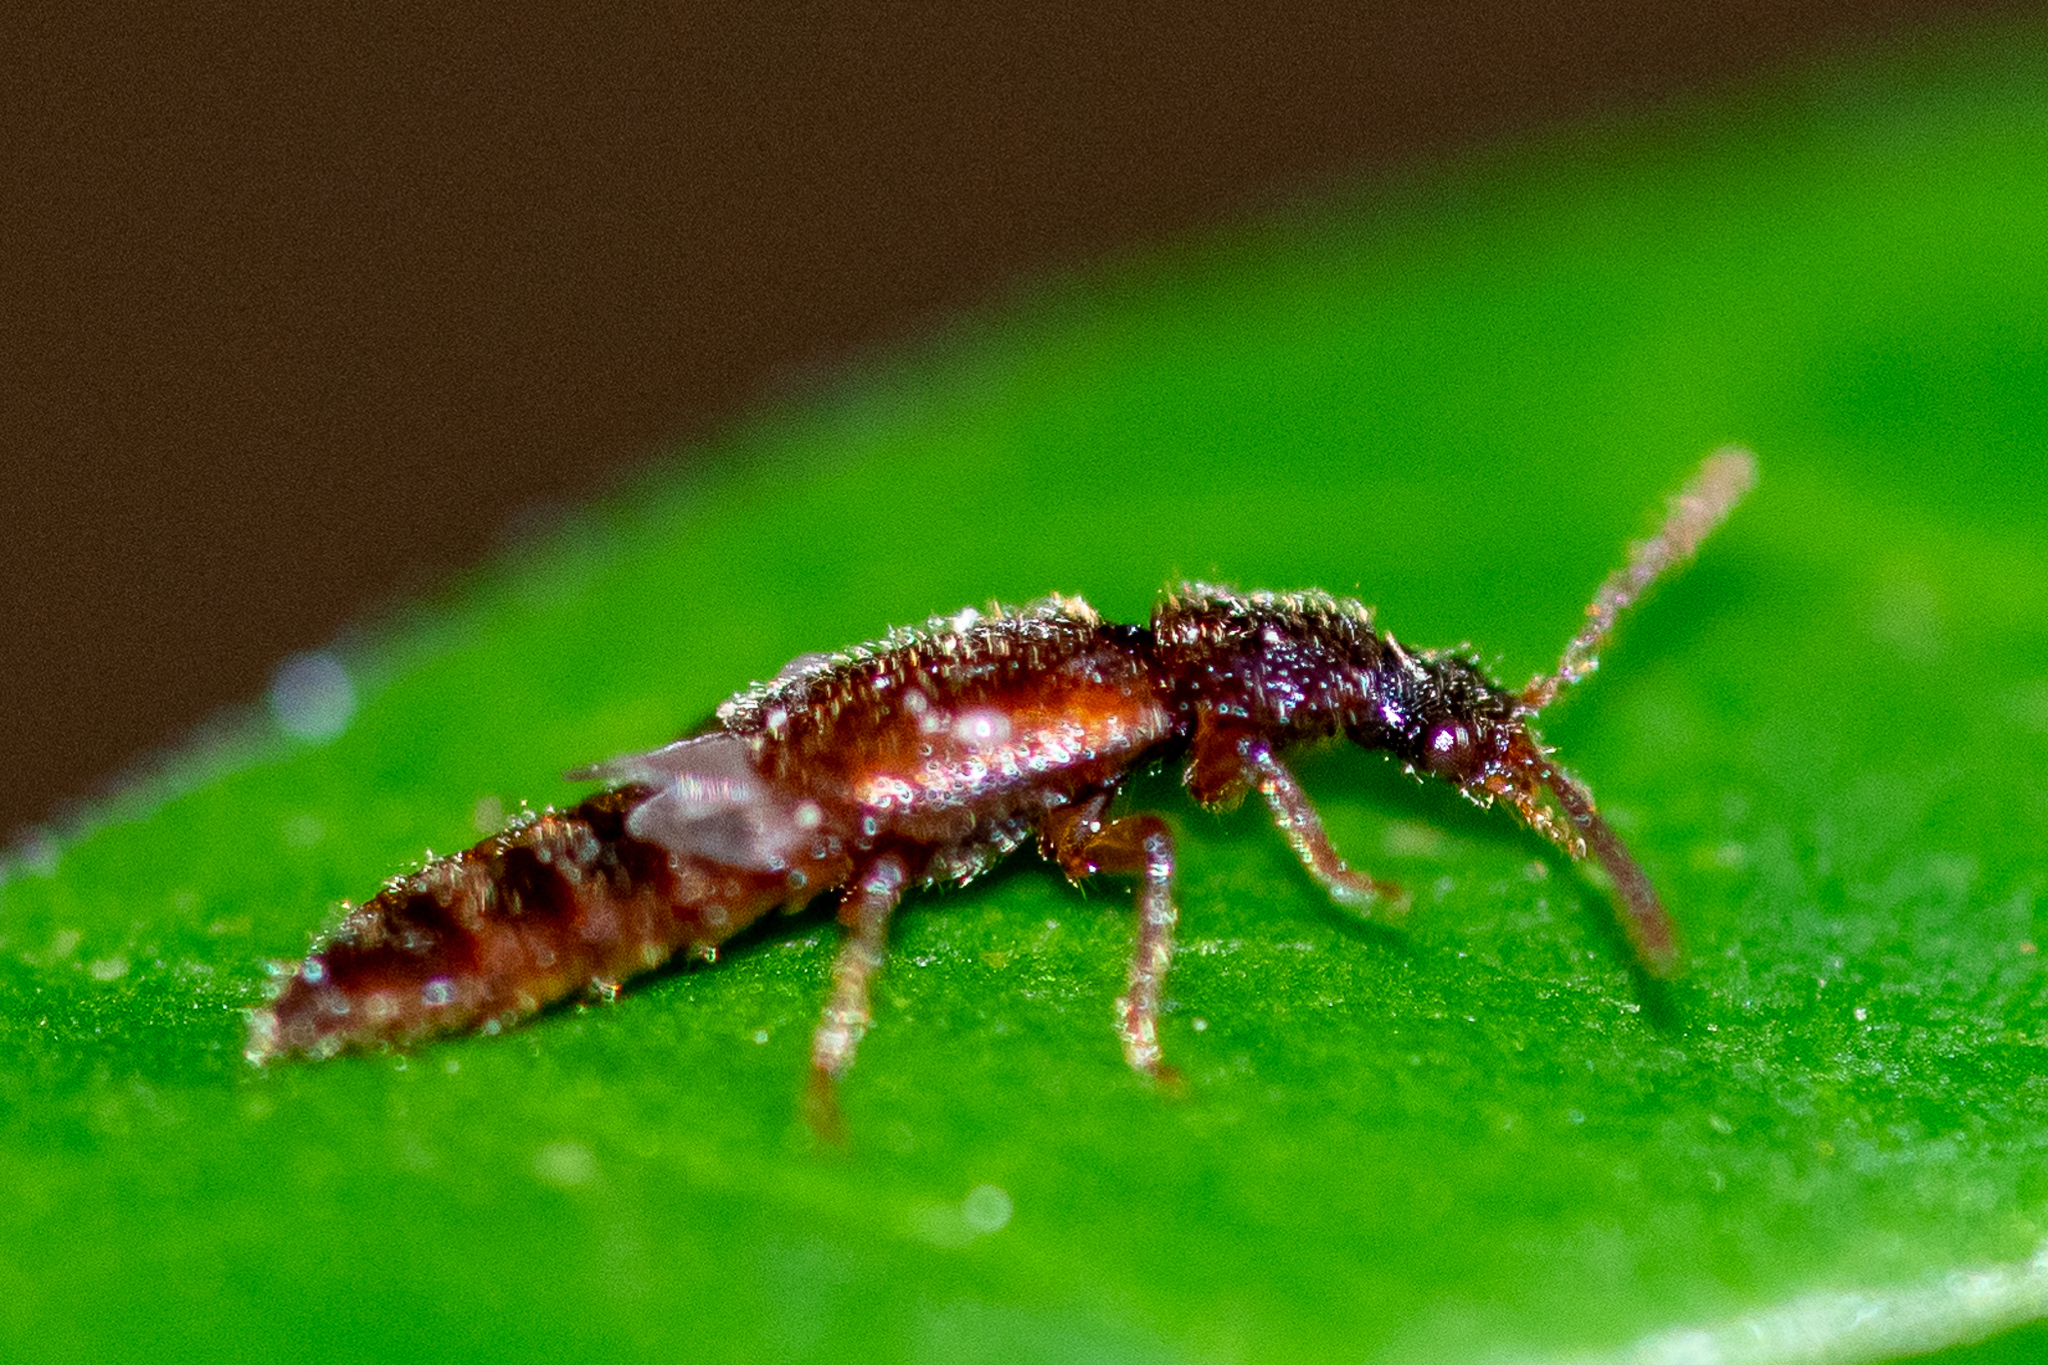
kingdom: Animalia
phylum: Arthropoda
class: Insecta
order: Coleoptera
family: Staphylinidae
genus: Acidota
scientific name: Acidota subcarinata
